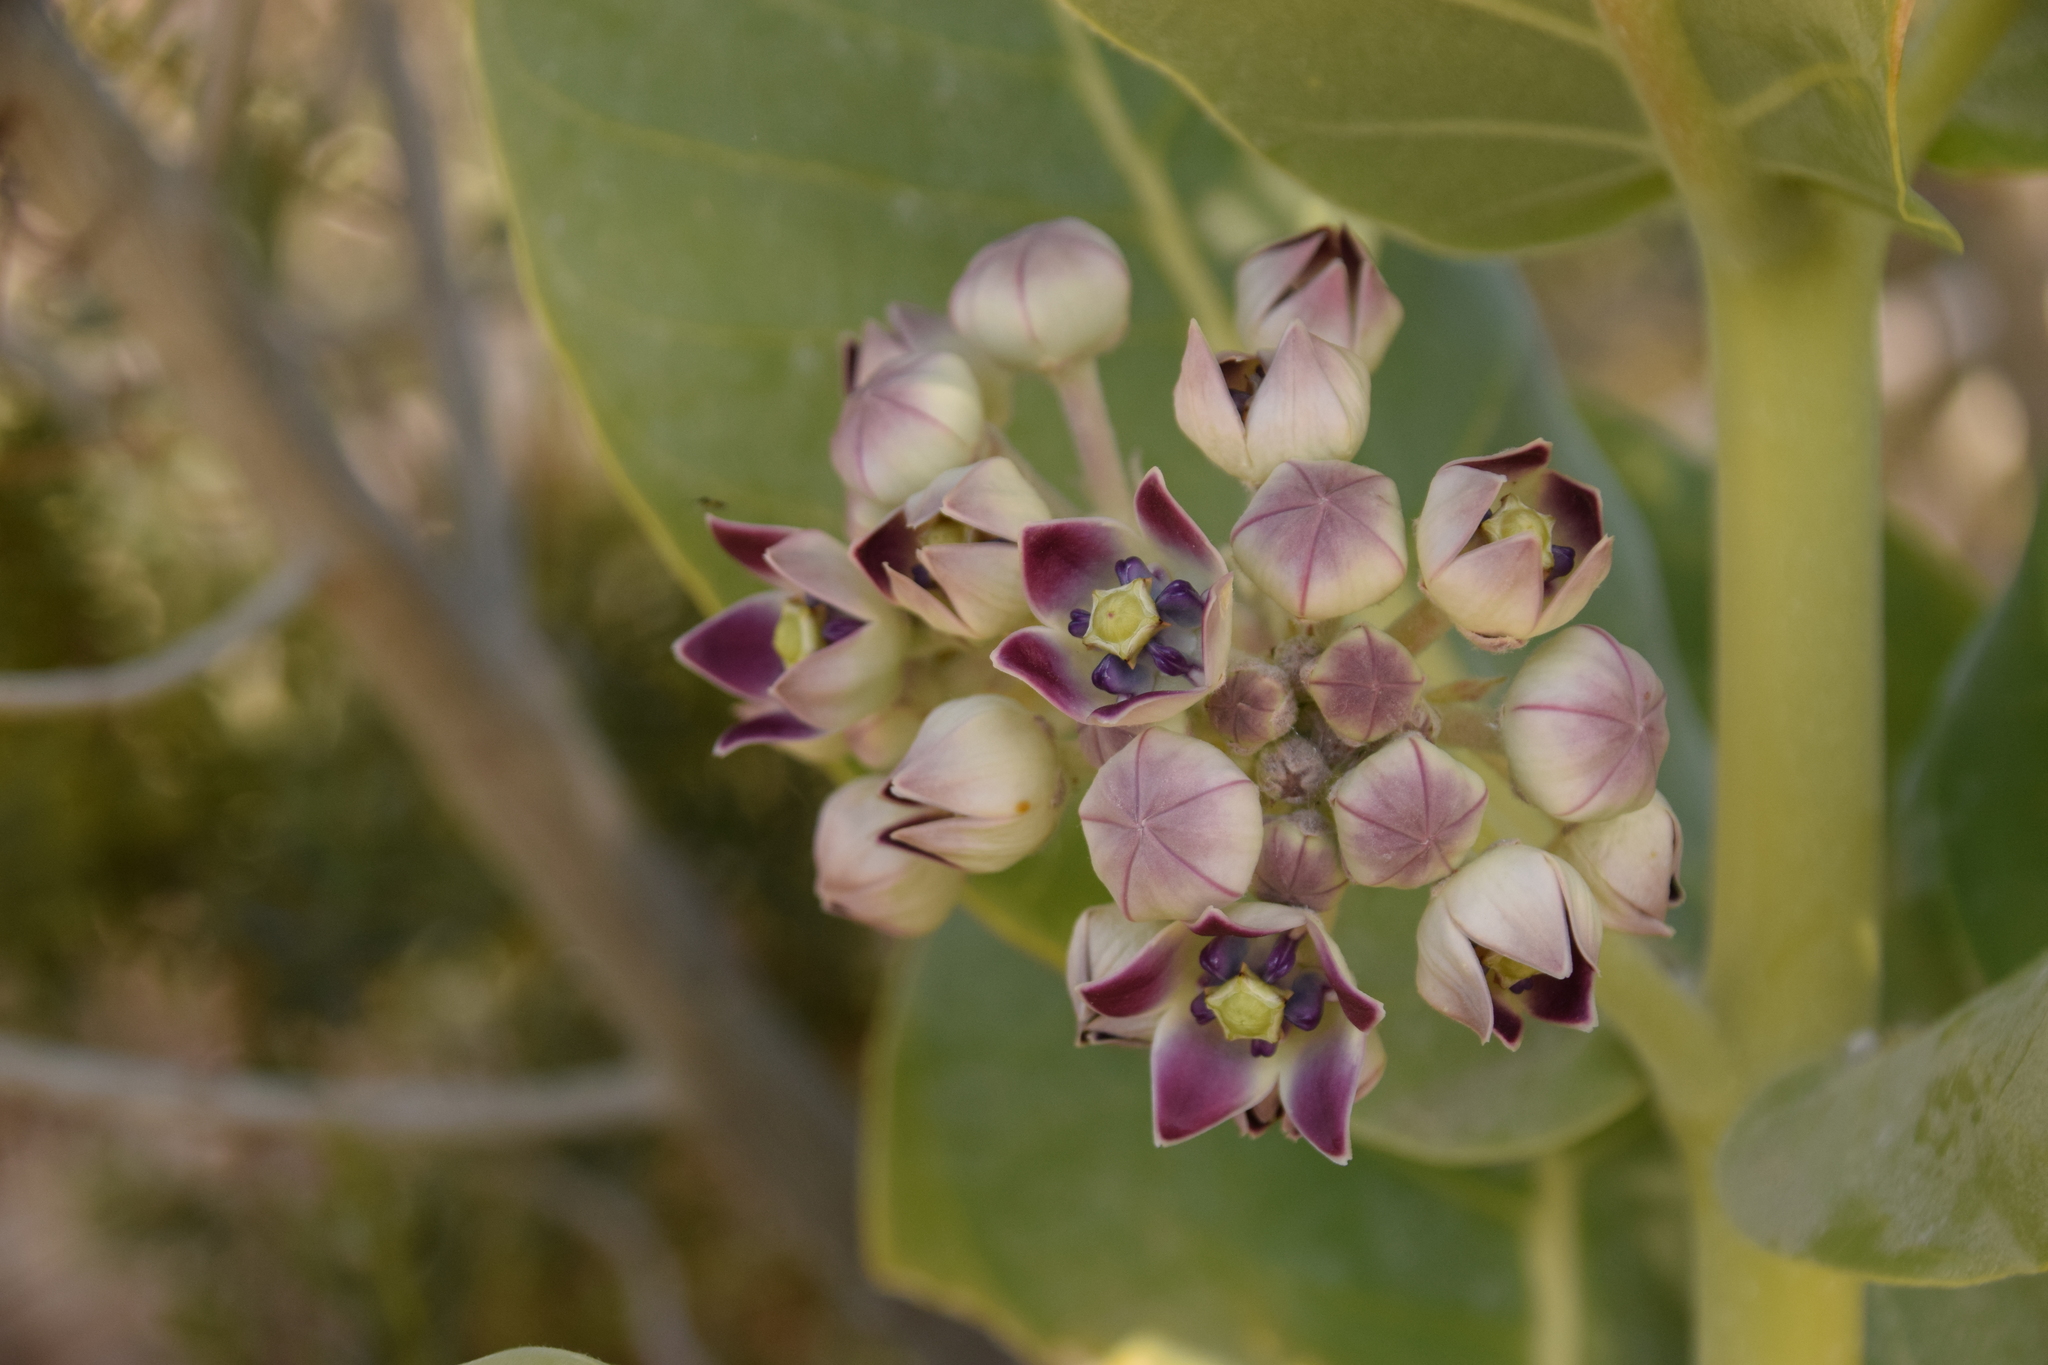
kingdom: Plantae
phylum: Tracheophyta
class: Magnoliopsida
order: Gentianales
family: Apocynaceae
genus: Calotropis
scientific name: Calotropis procera
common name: Roostertree
